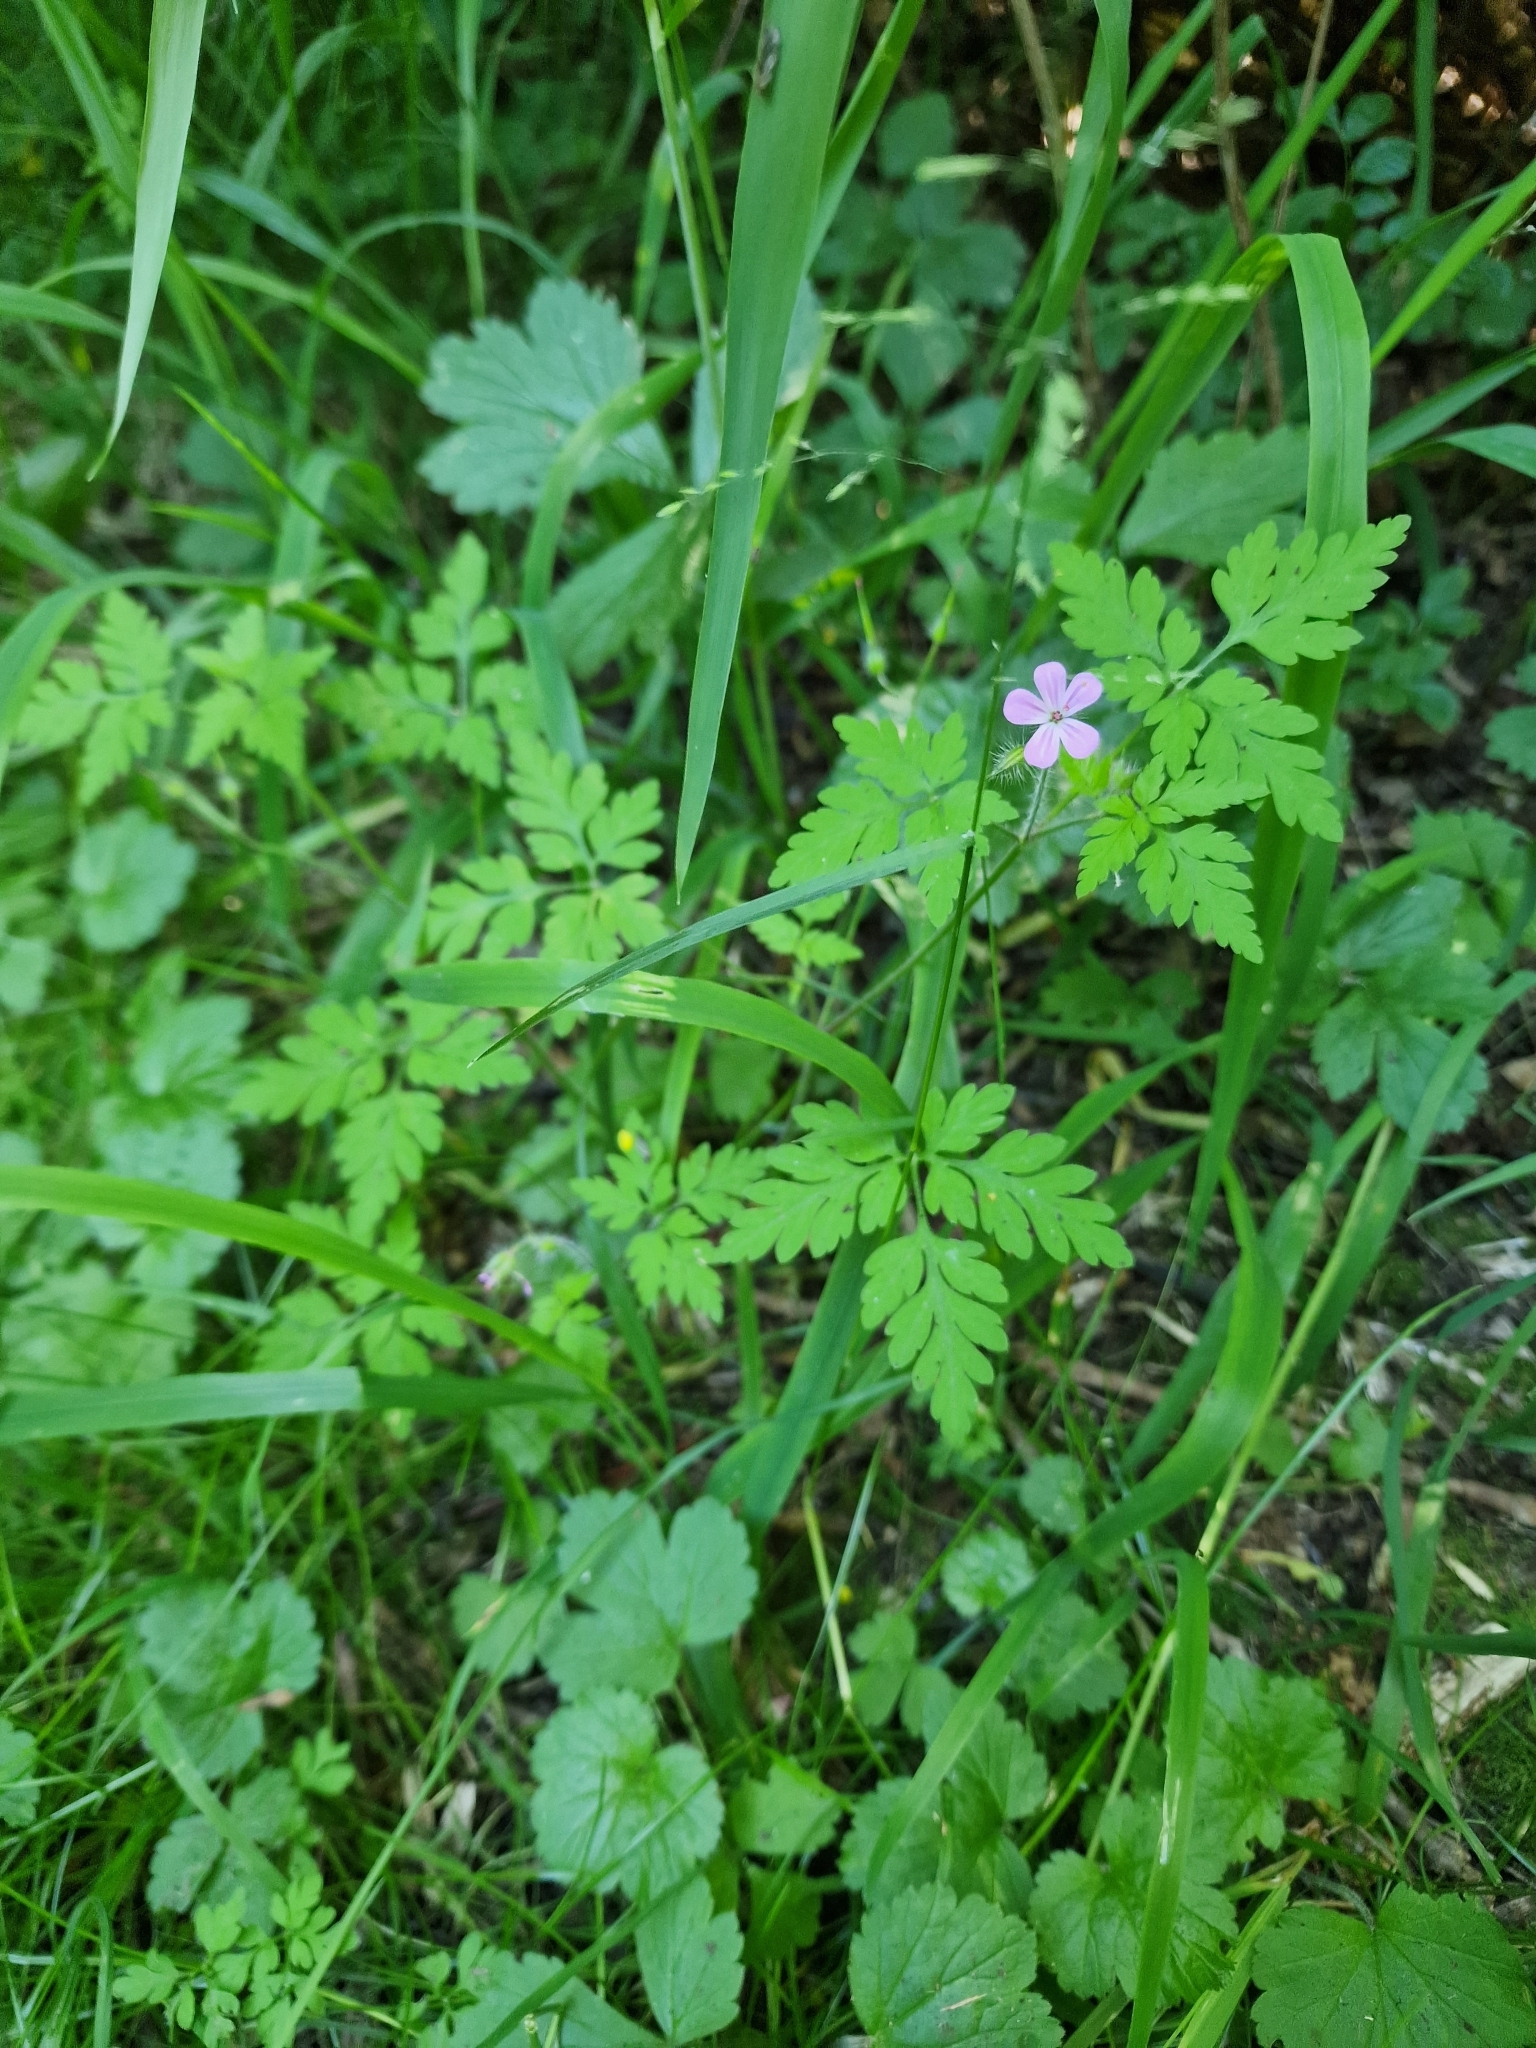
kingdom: Plantae
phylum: Tracheophyta
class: Magnoliopsida
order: Geraniales
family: Geraniaceae
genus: Geranium
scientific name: Geranium robertianum
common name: Herb-robert
